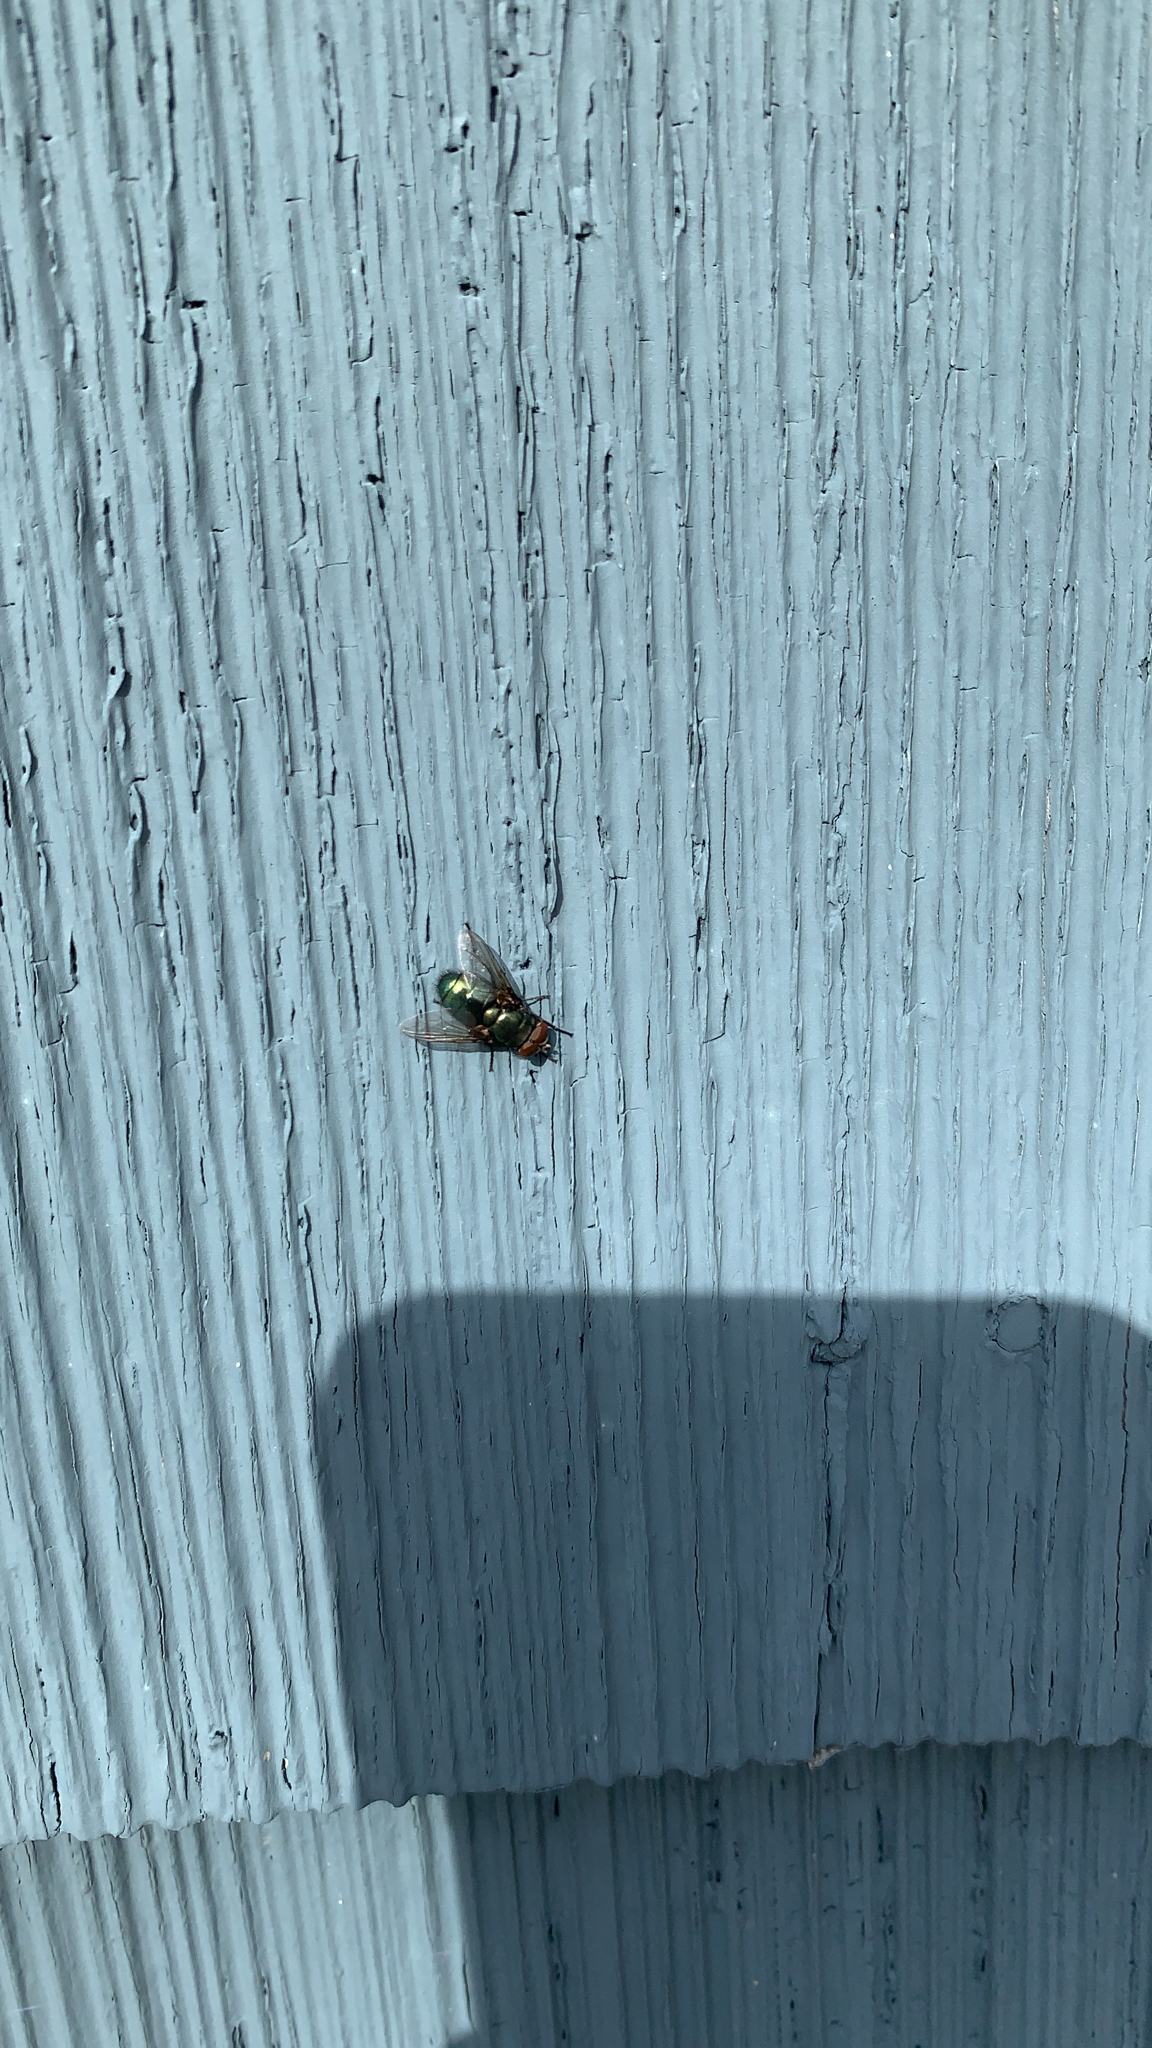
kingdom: Animalia
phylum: Arthropoda
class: Insecta
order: Diptera
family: Calliphoridae
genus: Phormia
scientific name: Phormia regina
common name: Black blow fly
